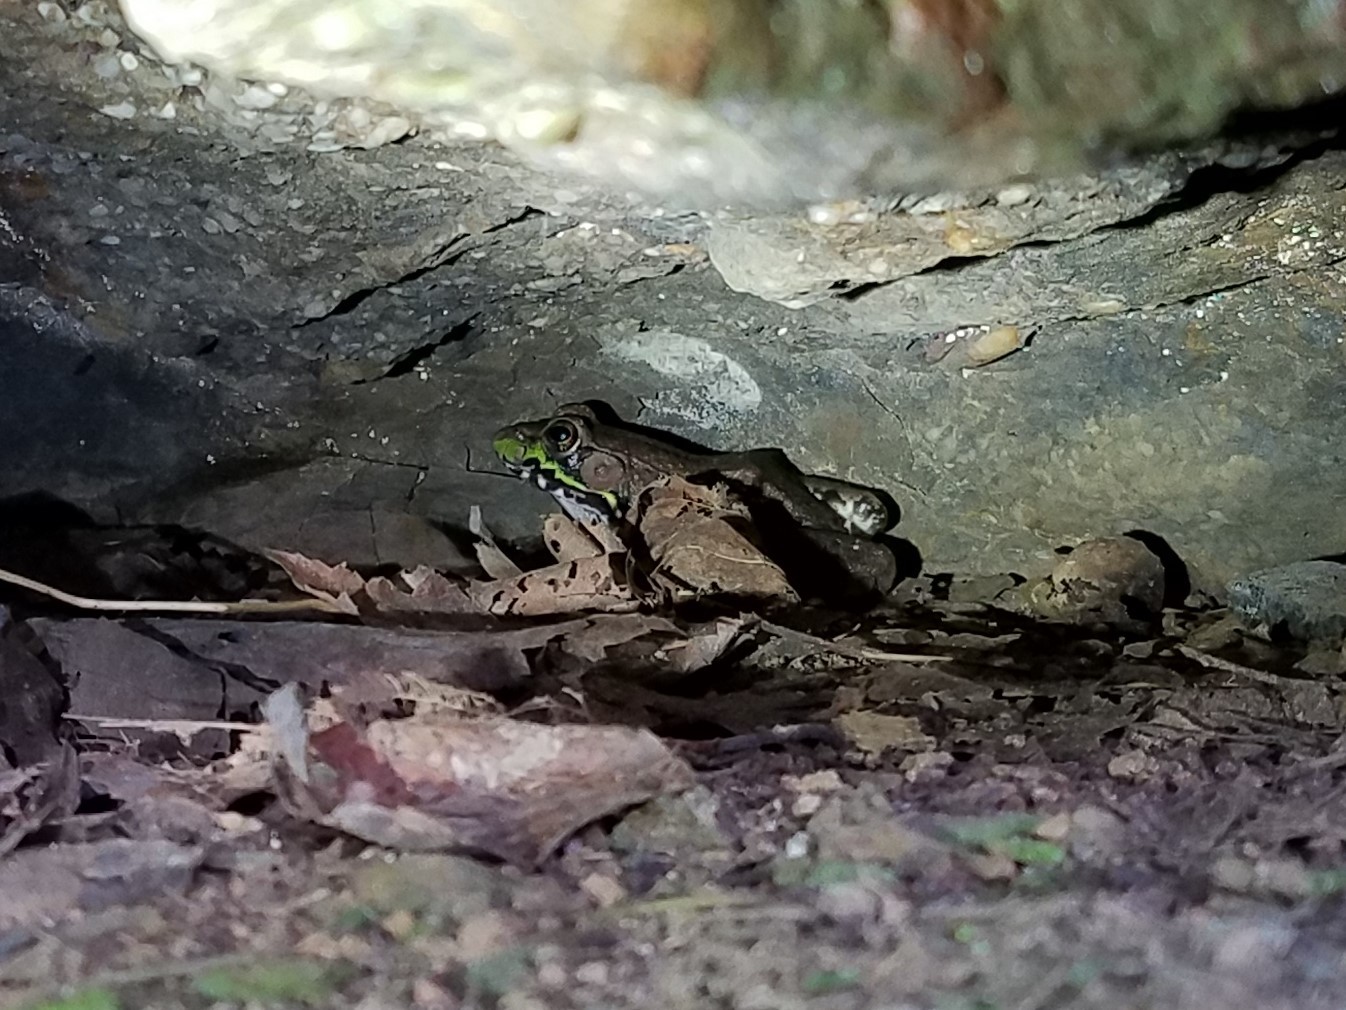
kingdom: Animalia
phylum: Chordata
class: Amphibia
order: Anura
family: Ranidae
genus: Lithobates
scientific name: Lithobates clamitans
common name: Green frog
